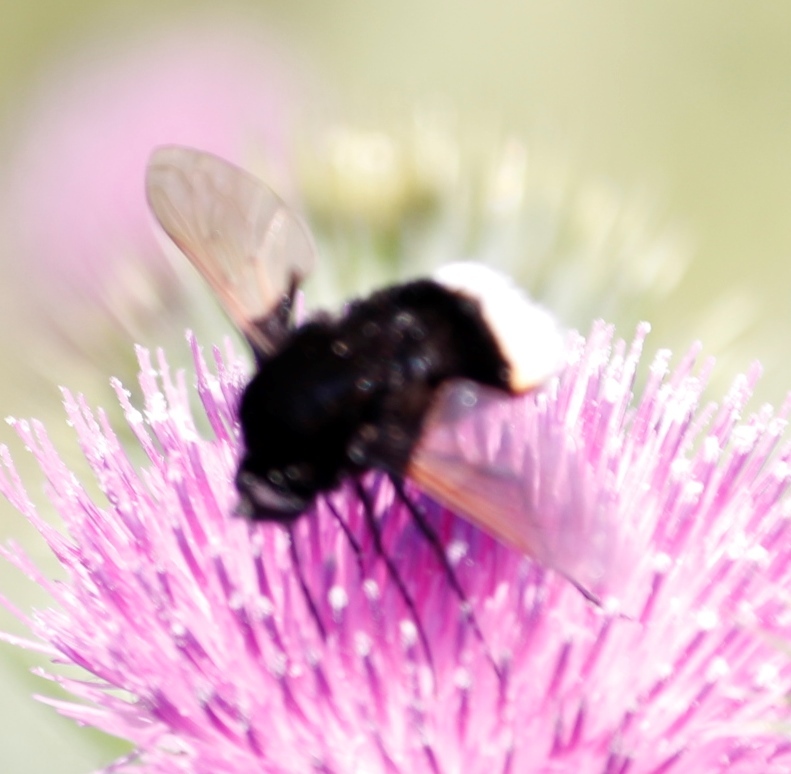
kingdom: Animalia
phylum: Arthropoda
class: Insecta
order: Diptera
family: Bombyliidae
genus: Bombomyia
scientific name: Bombomyia discoidea
